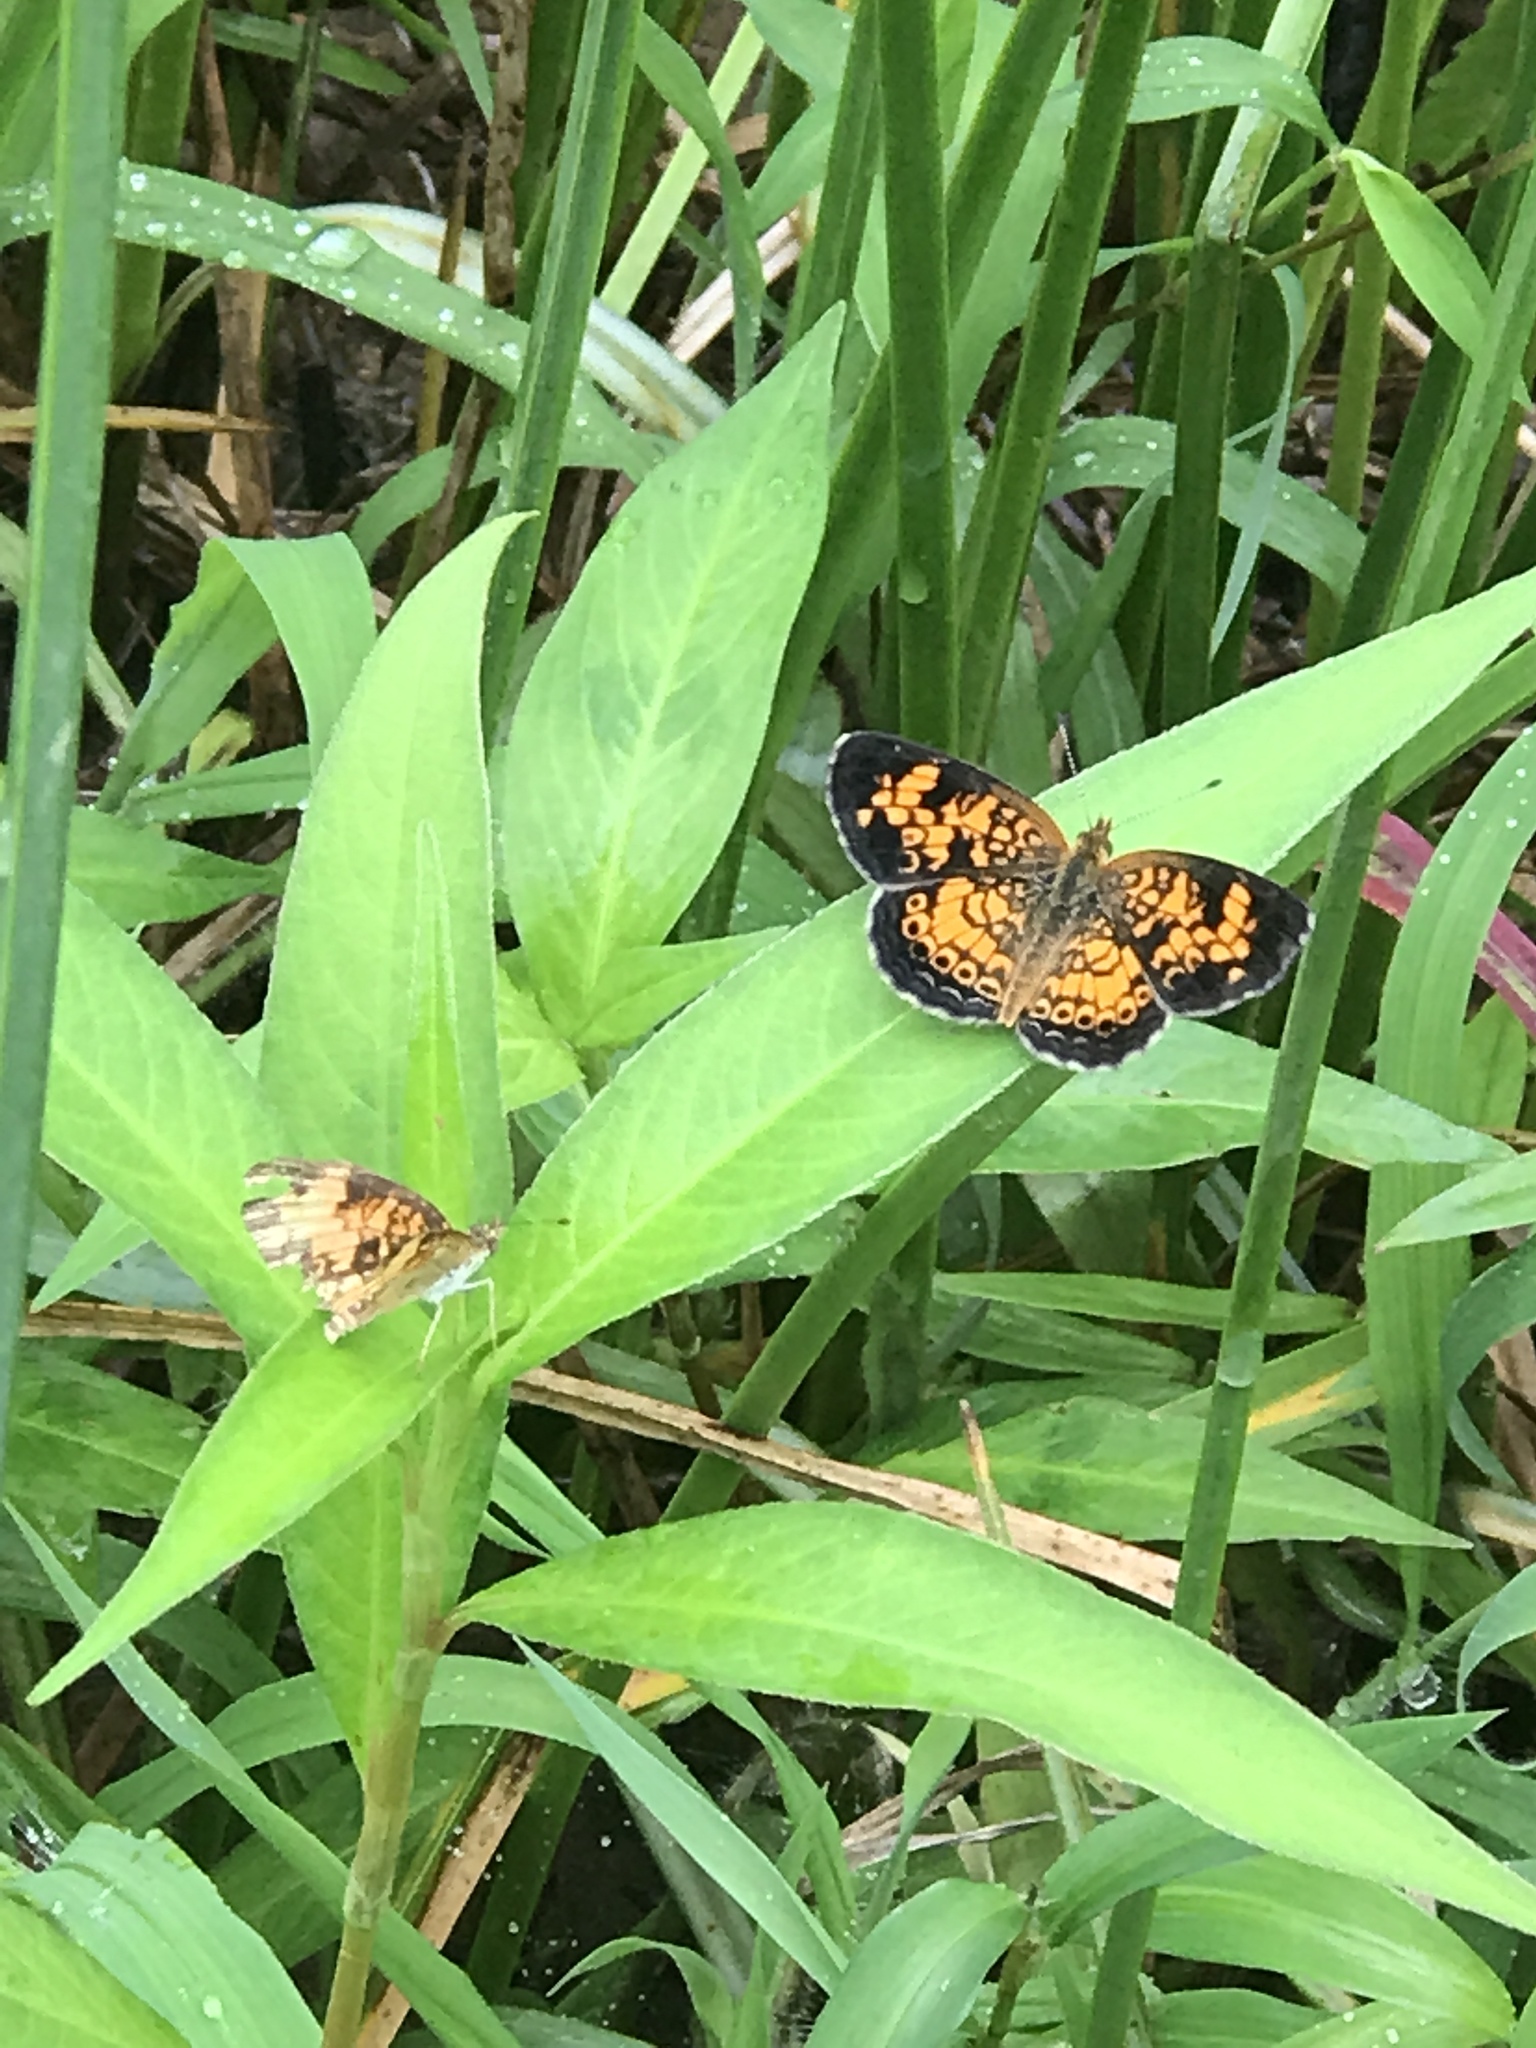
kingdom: Animalia
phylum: Arthropoda
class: Insecta
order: Lepidoptera
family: Nymphalidae
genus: Phyciodes
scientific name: Phyciodes tharos
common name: Pearl crescent
